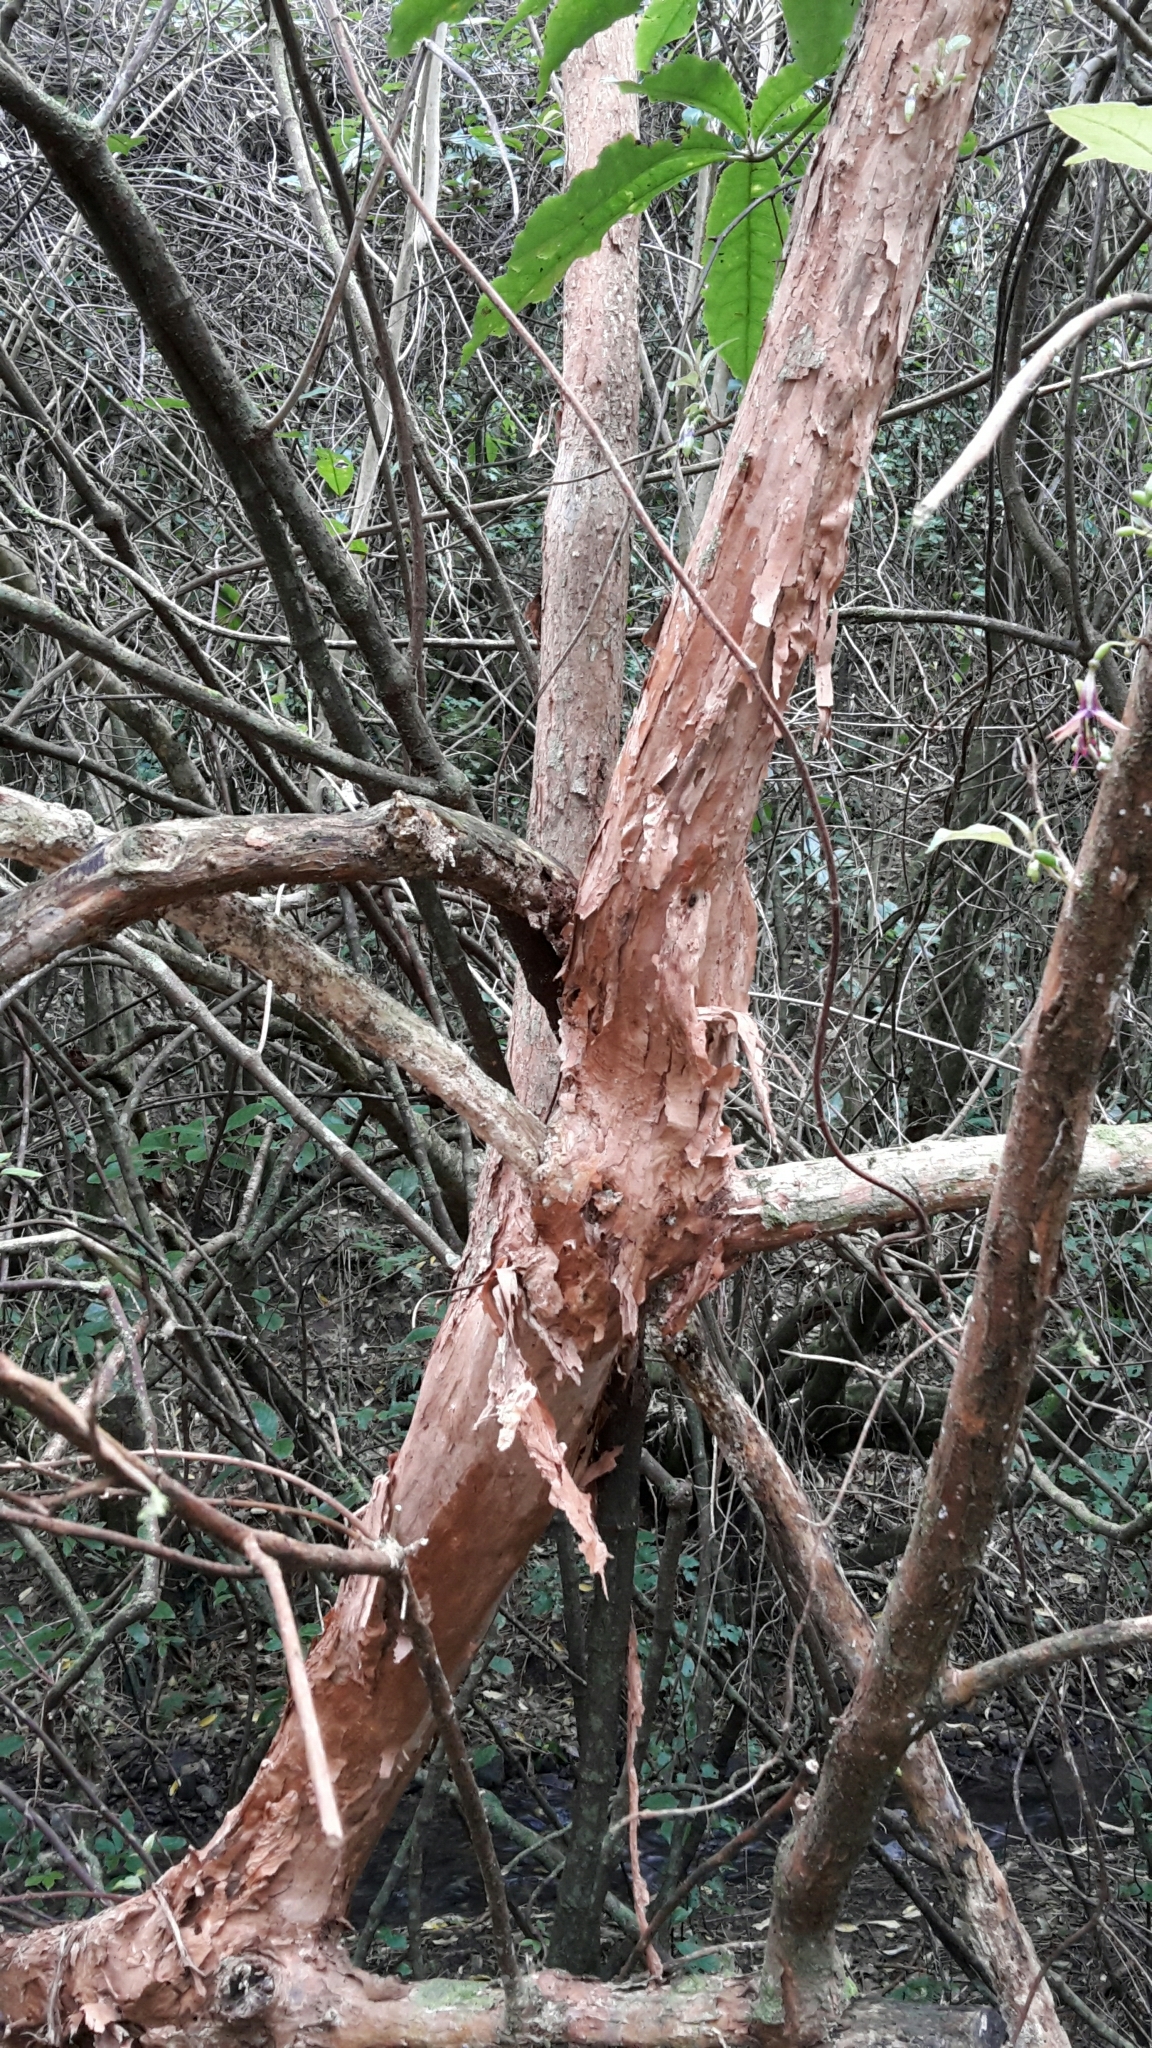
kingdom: Plantae
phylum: Tracheophyta
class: Magnoliopsida
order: Myrtales
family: Onagraceae
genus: Fuchsia
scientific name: Fuchsia excorticata
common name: Tree fuchsia
